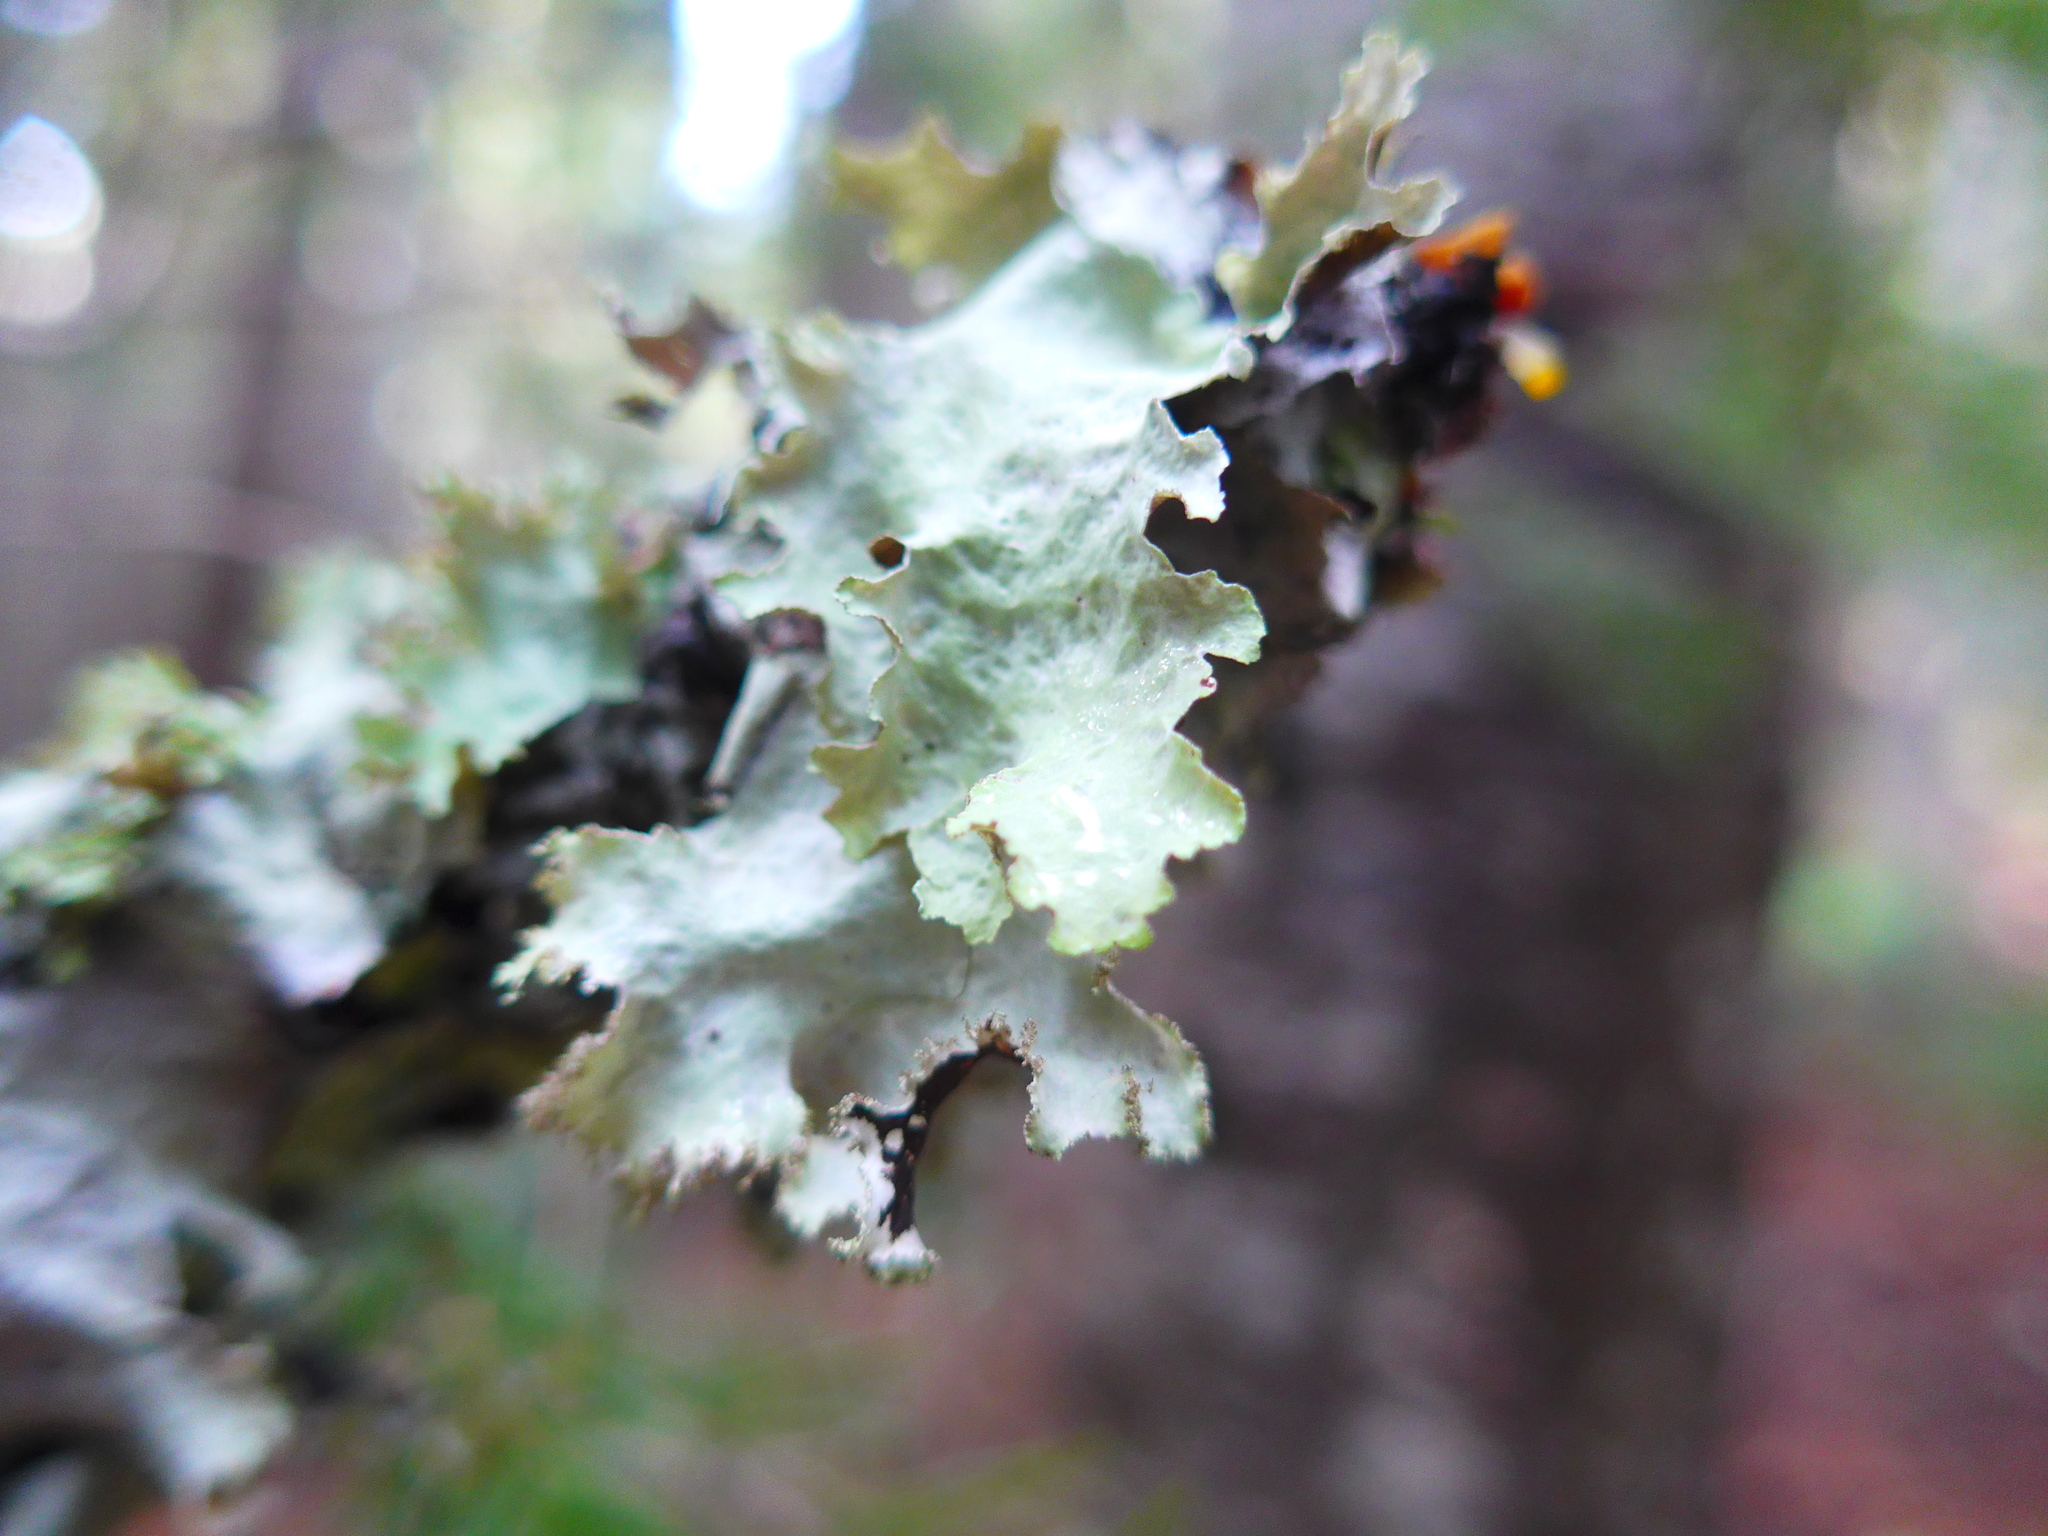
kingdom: Fungi
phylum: Ascomycota
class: Lecanoromycetes
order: Lecanorales
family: Parmeliaceae
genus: Platismatia
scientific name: Platismatia glauca
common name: Varied rag lichen
